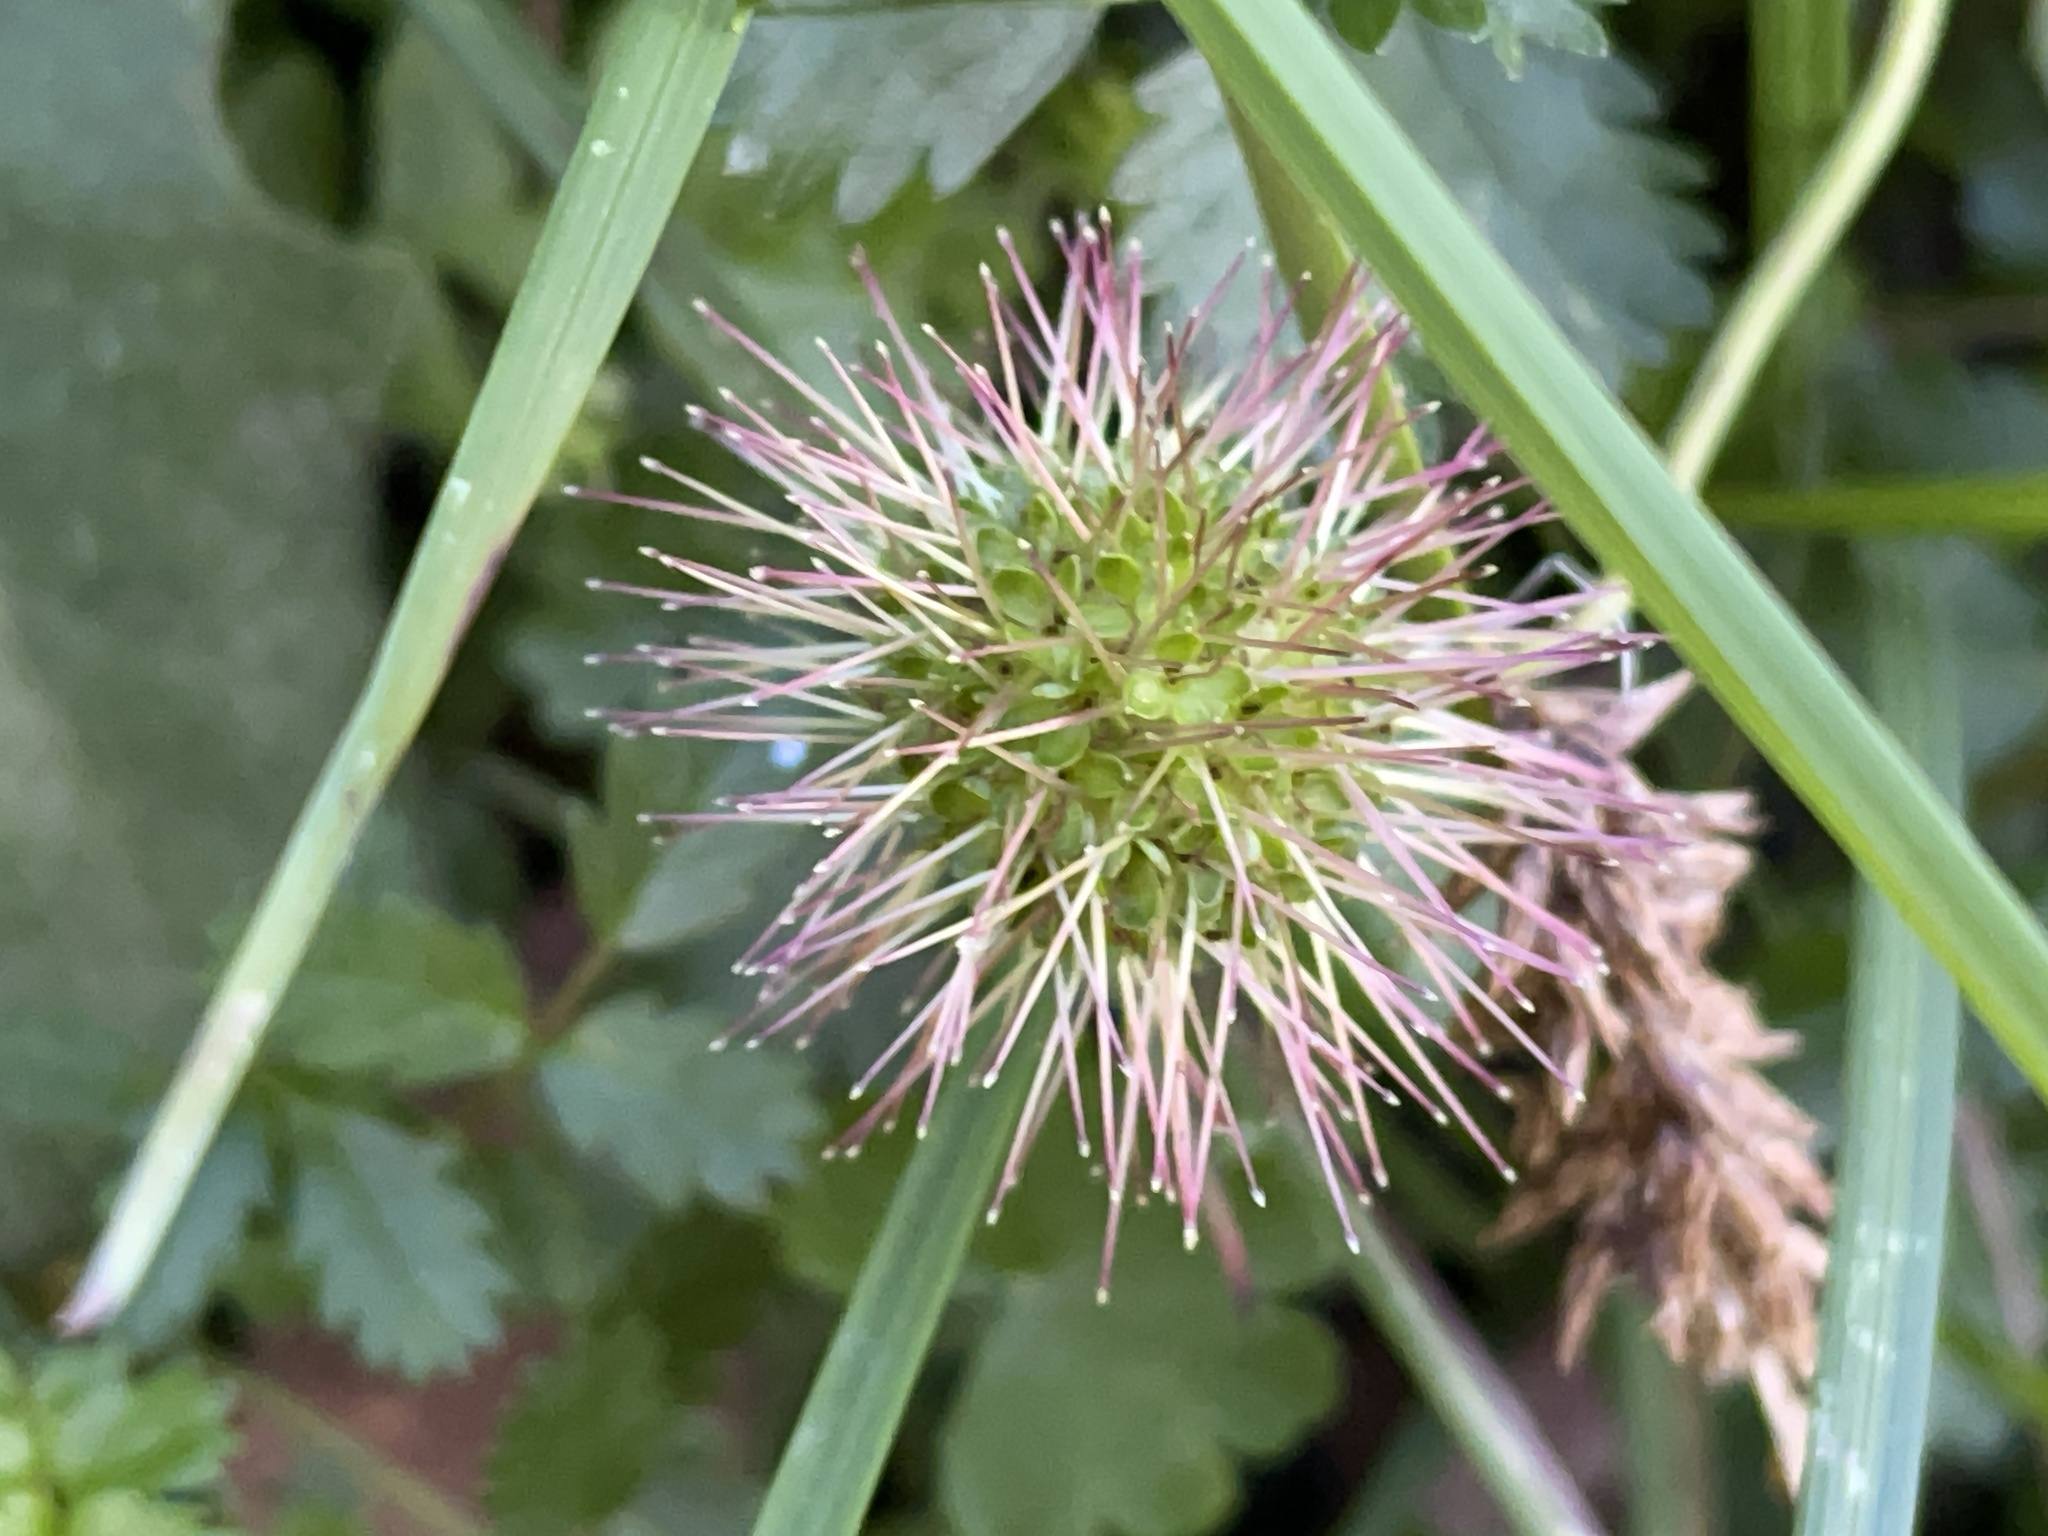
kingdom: Plantae
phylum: Tracheophyta
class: Magnoliopsida
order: Rosales
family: Rosaceae
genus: Acaena
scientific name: Acaena novae-zelandiae
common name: Pirri-pirri-bur
